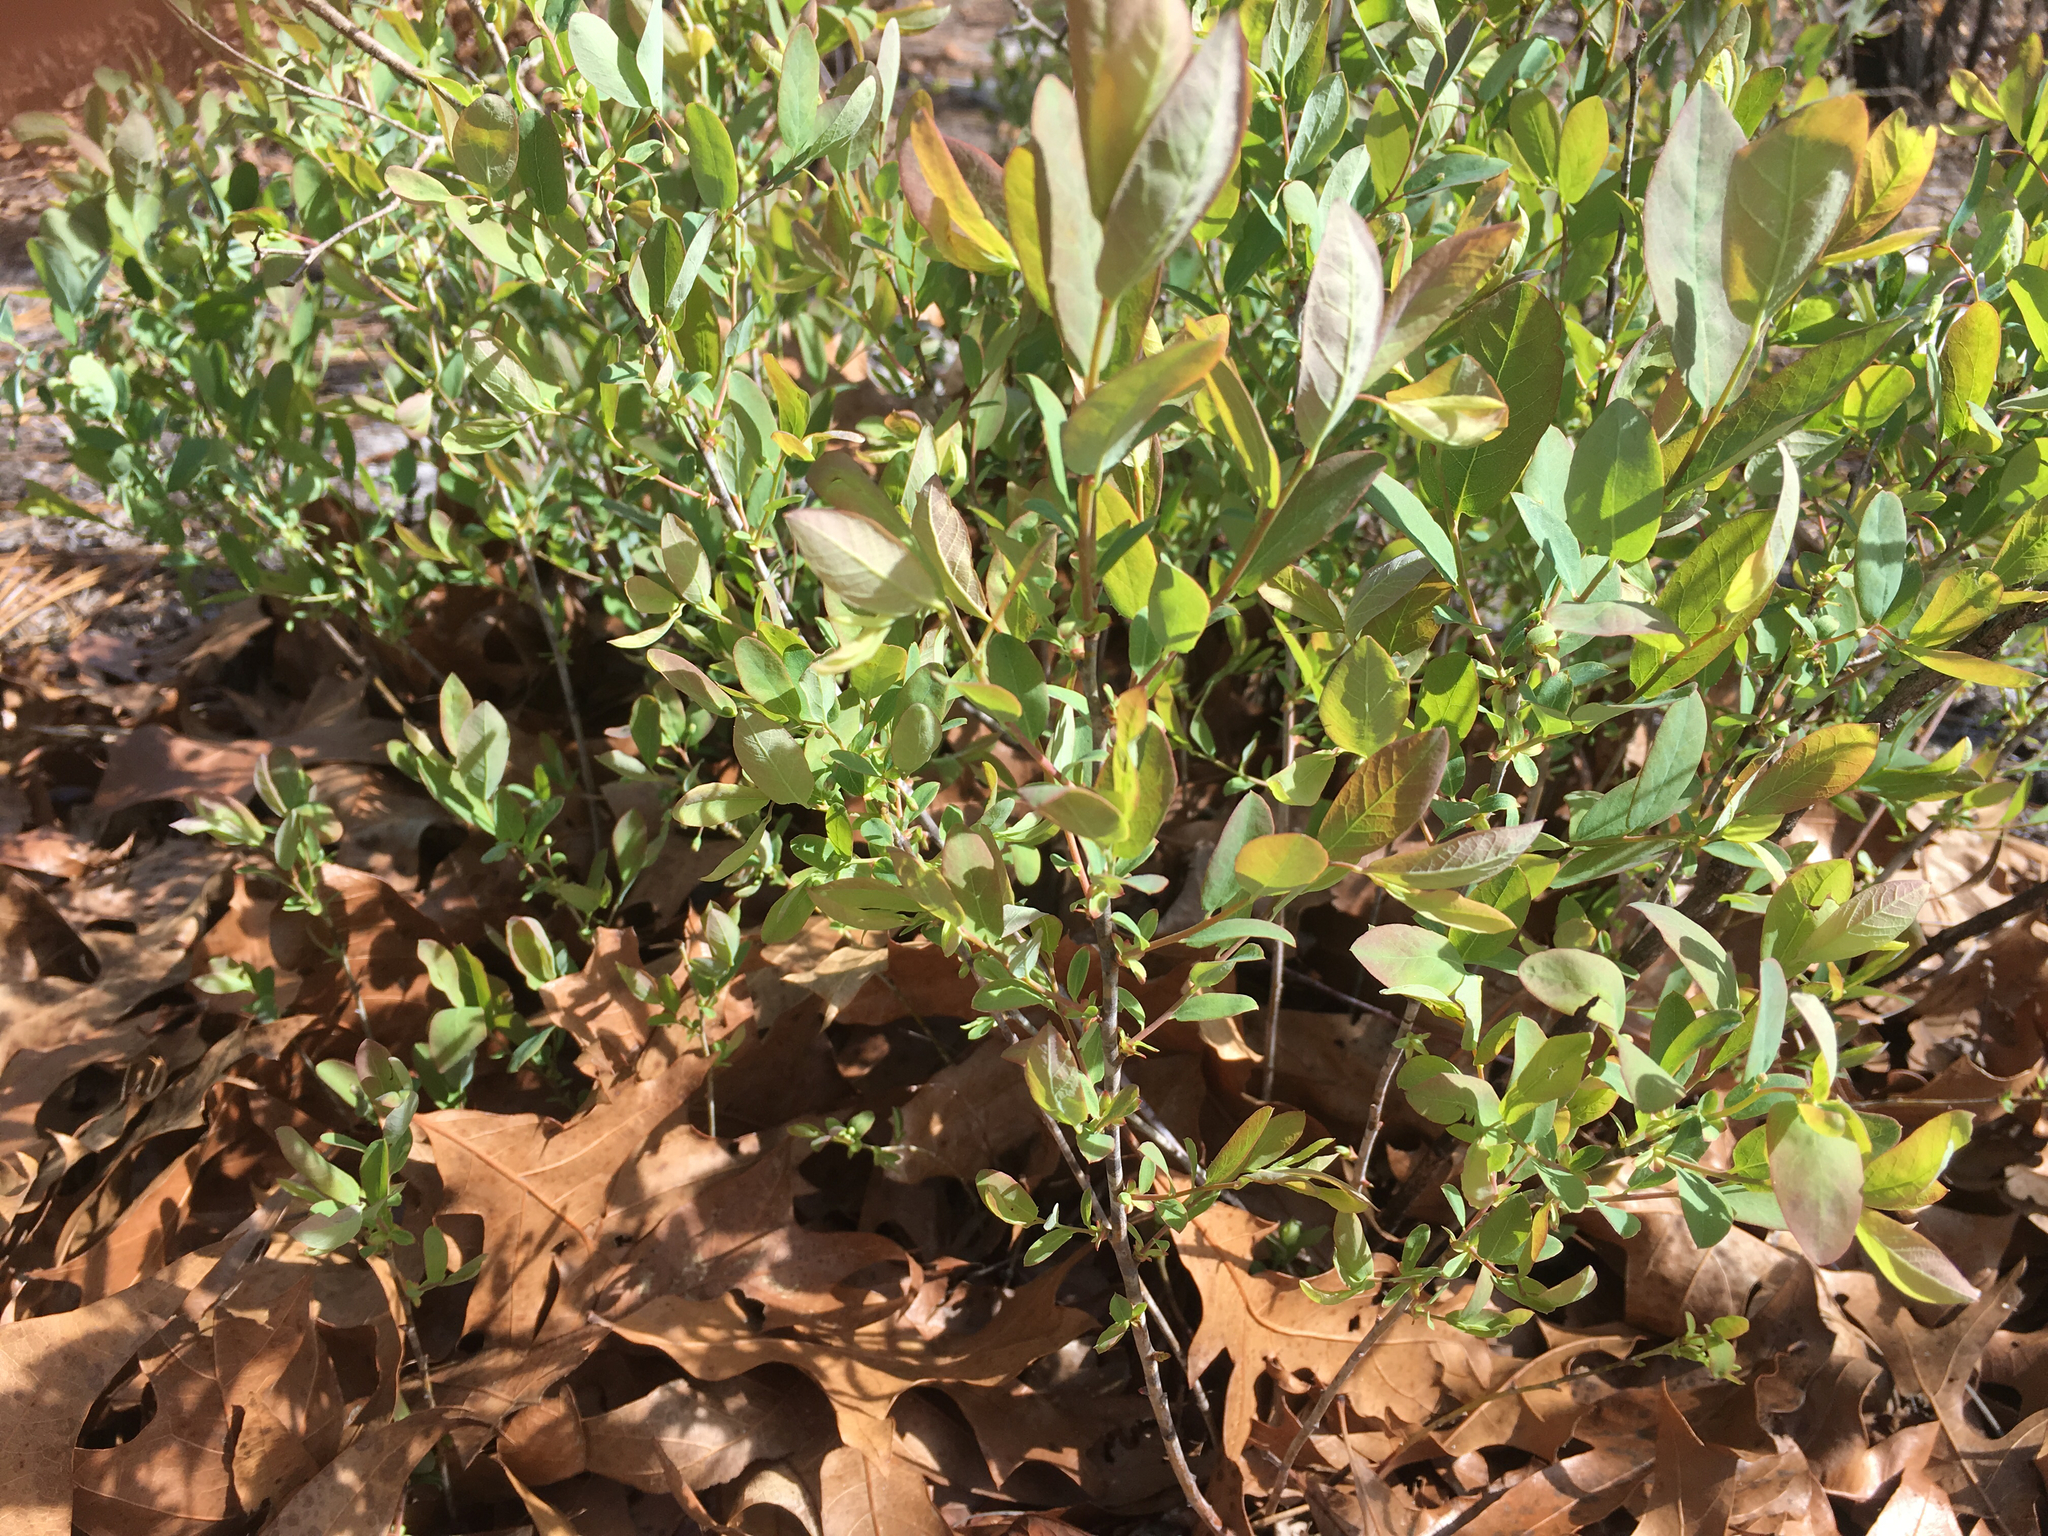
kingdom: Plantae
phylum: Tracheophyta
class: Magnoliopsida
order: Ericales
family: Ericaceae
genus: Vaccinium
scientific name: Vaccinium stamineum
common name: Deerberry
